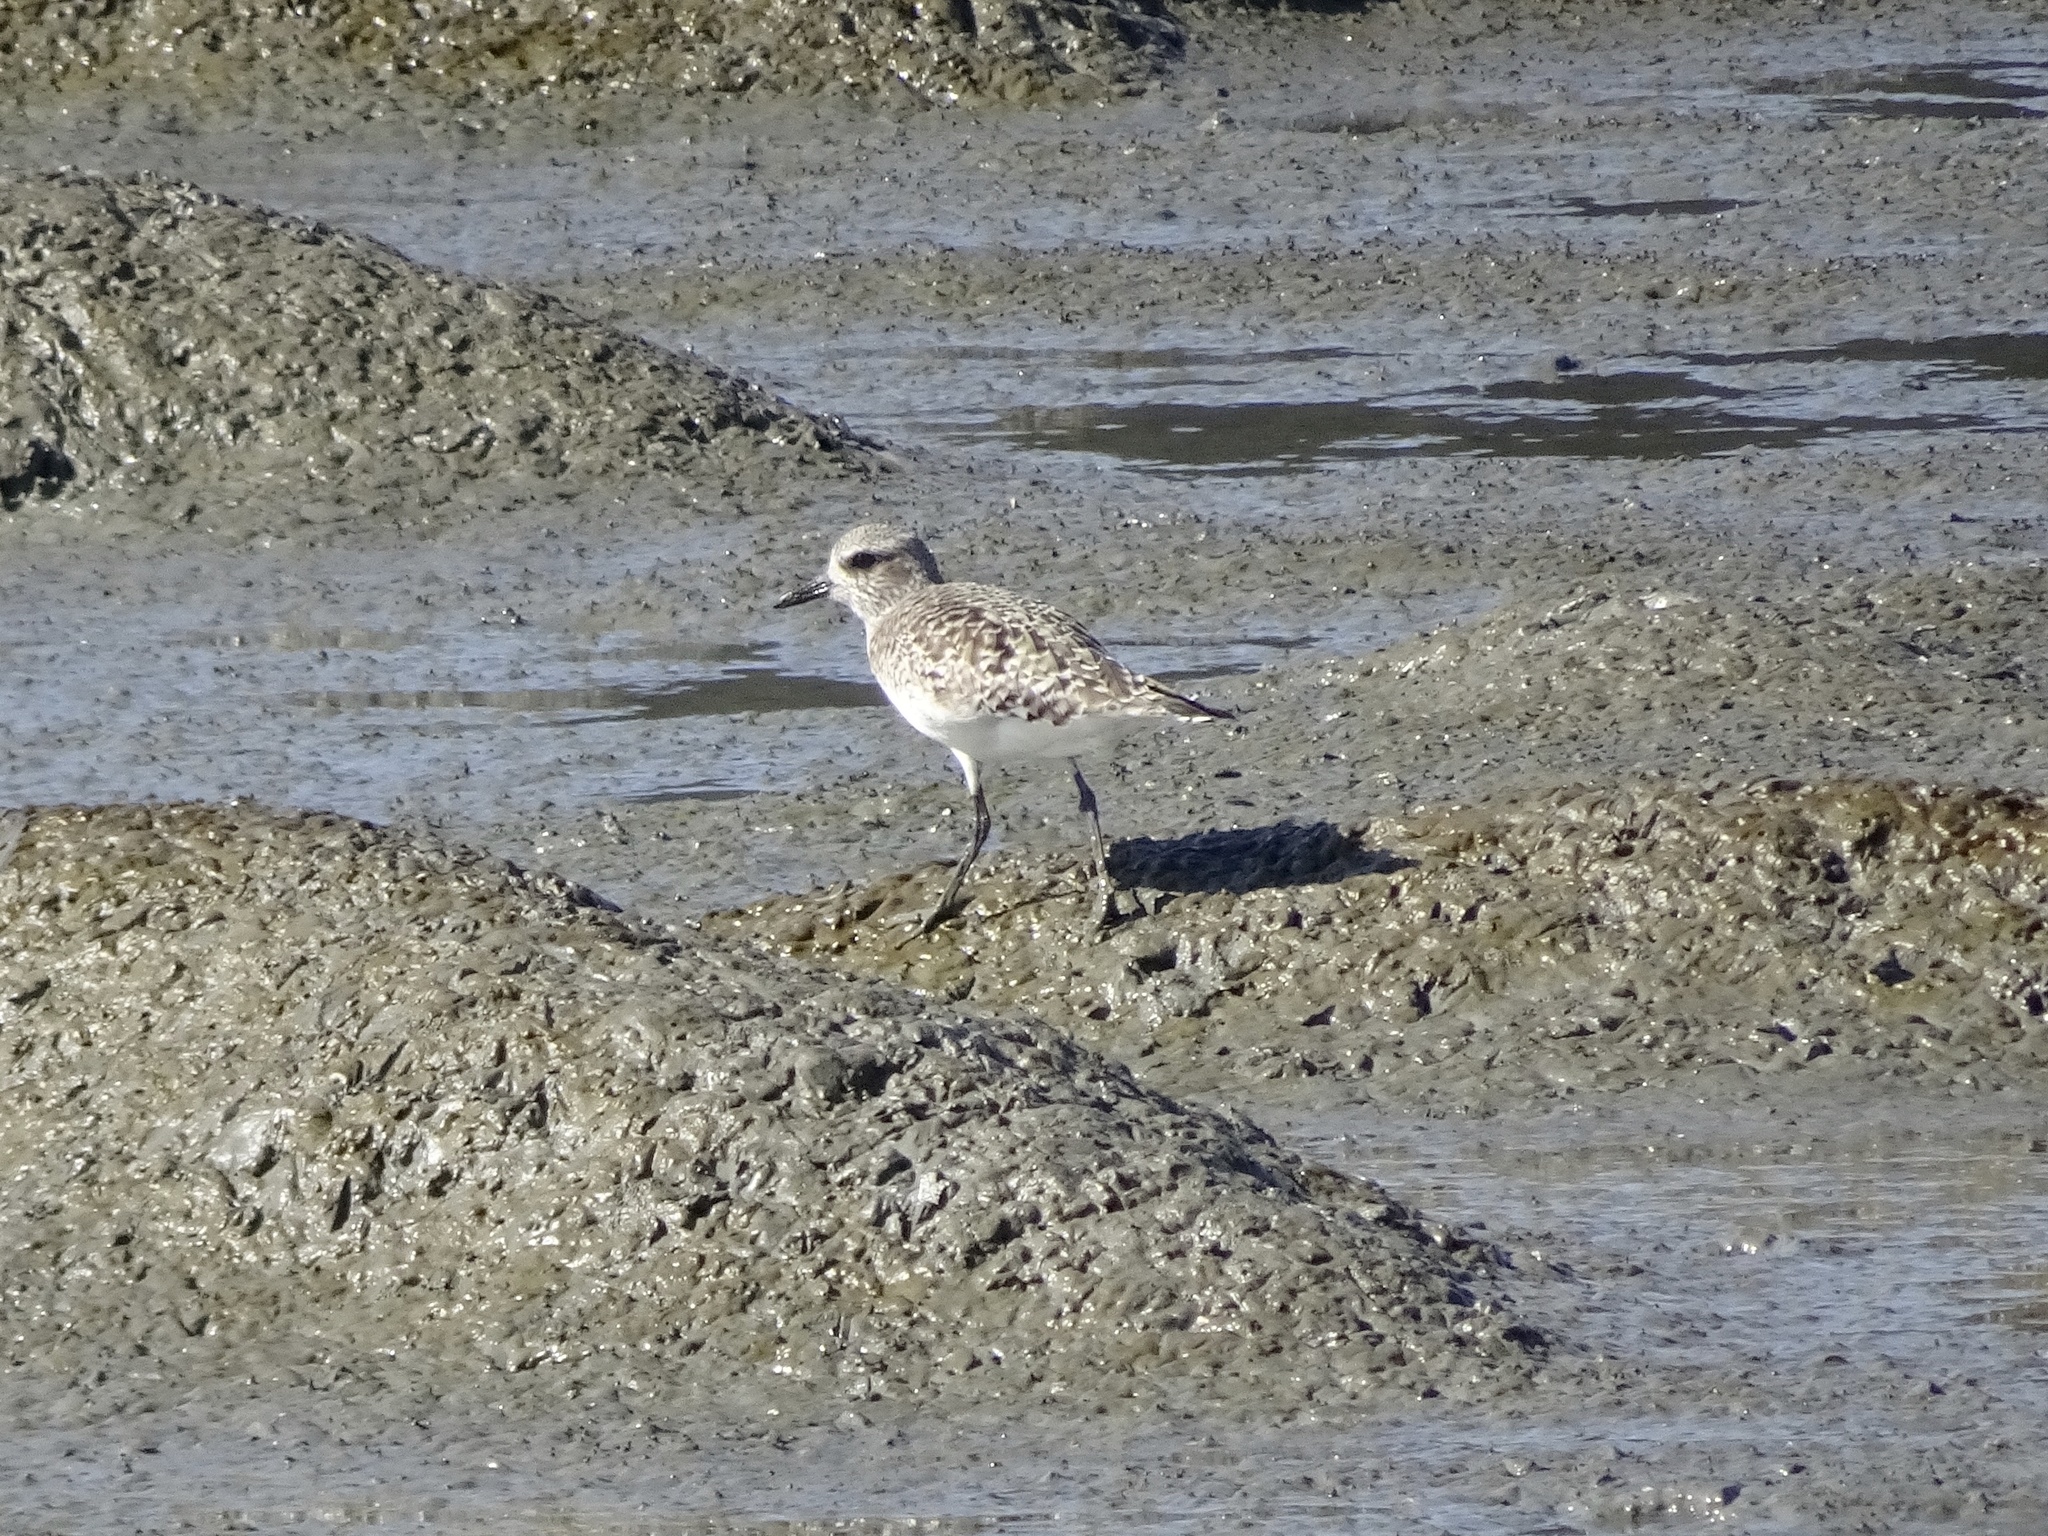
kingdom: Animalia
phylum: Chordata
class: Aves
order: Charadriiformes
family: Charadriidae
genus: Pluvialis
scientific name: Pluvialis squatarola
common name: Grey plover
